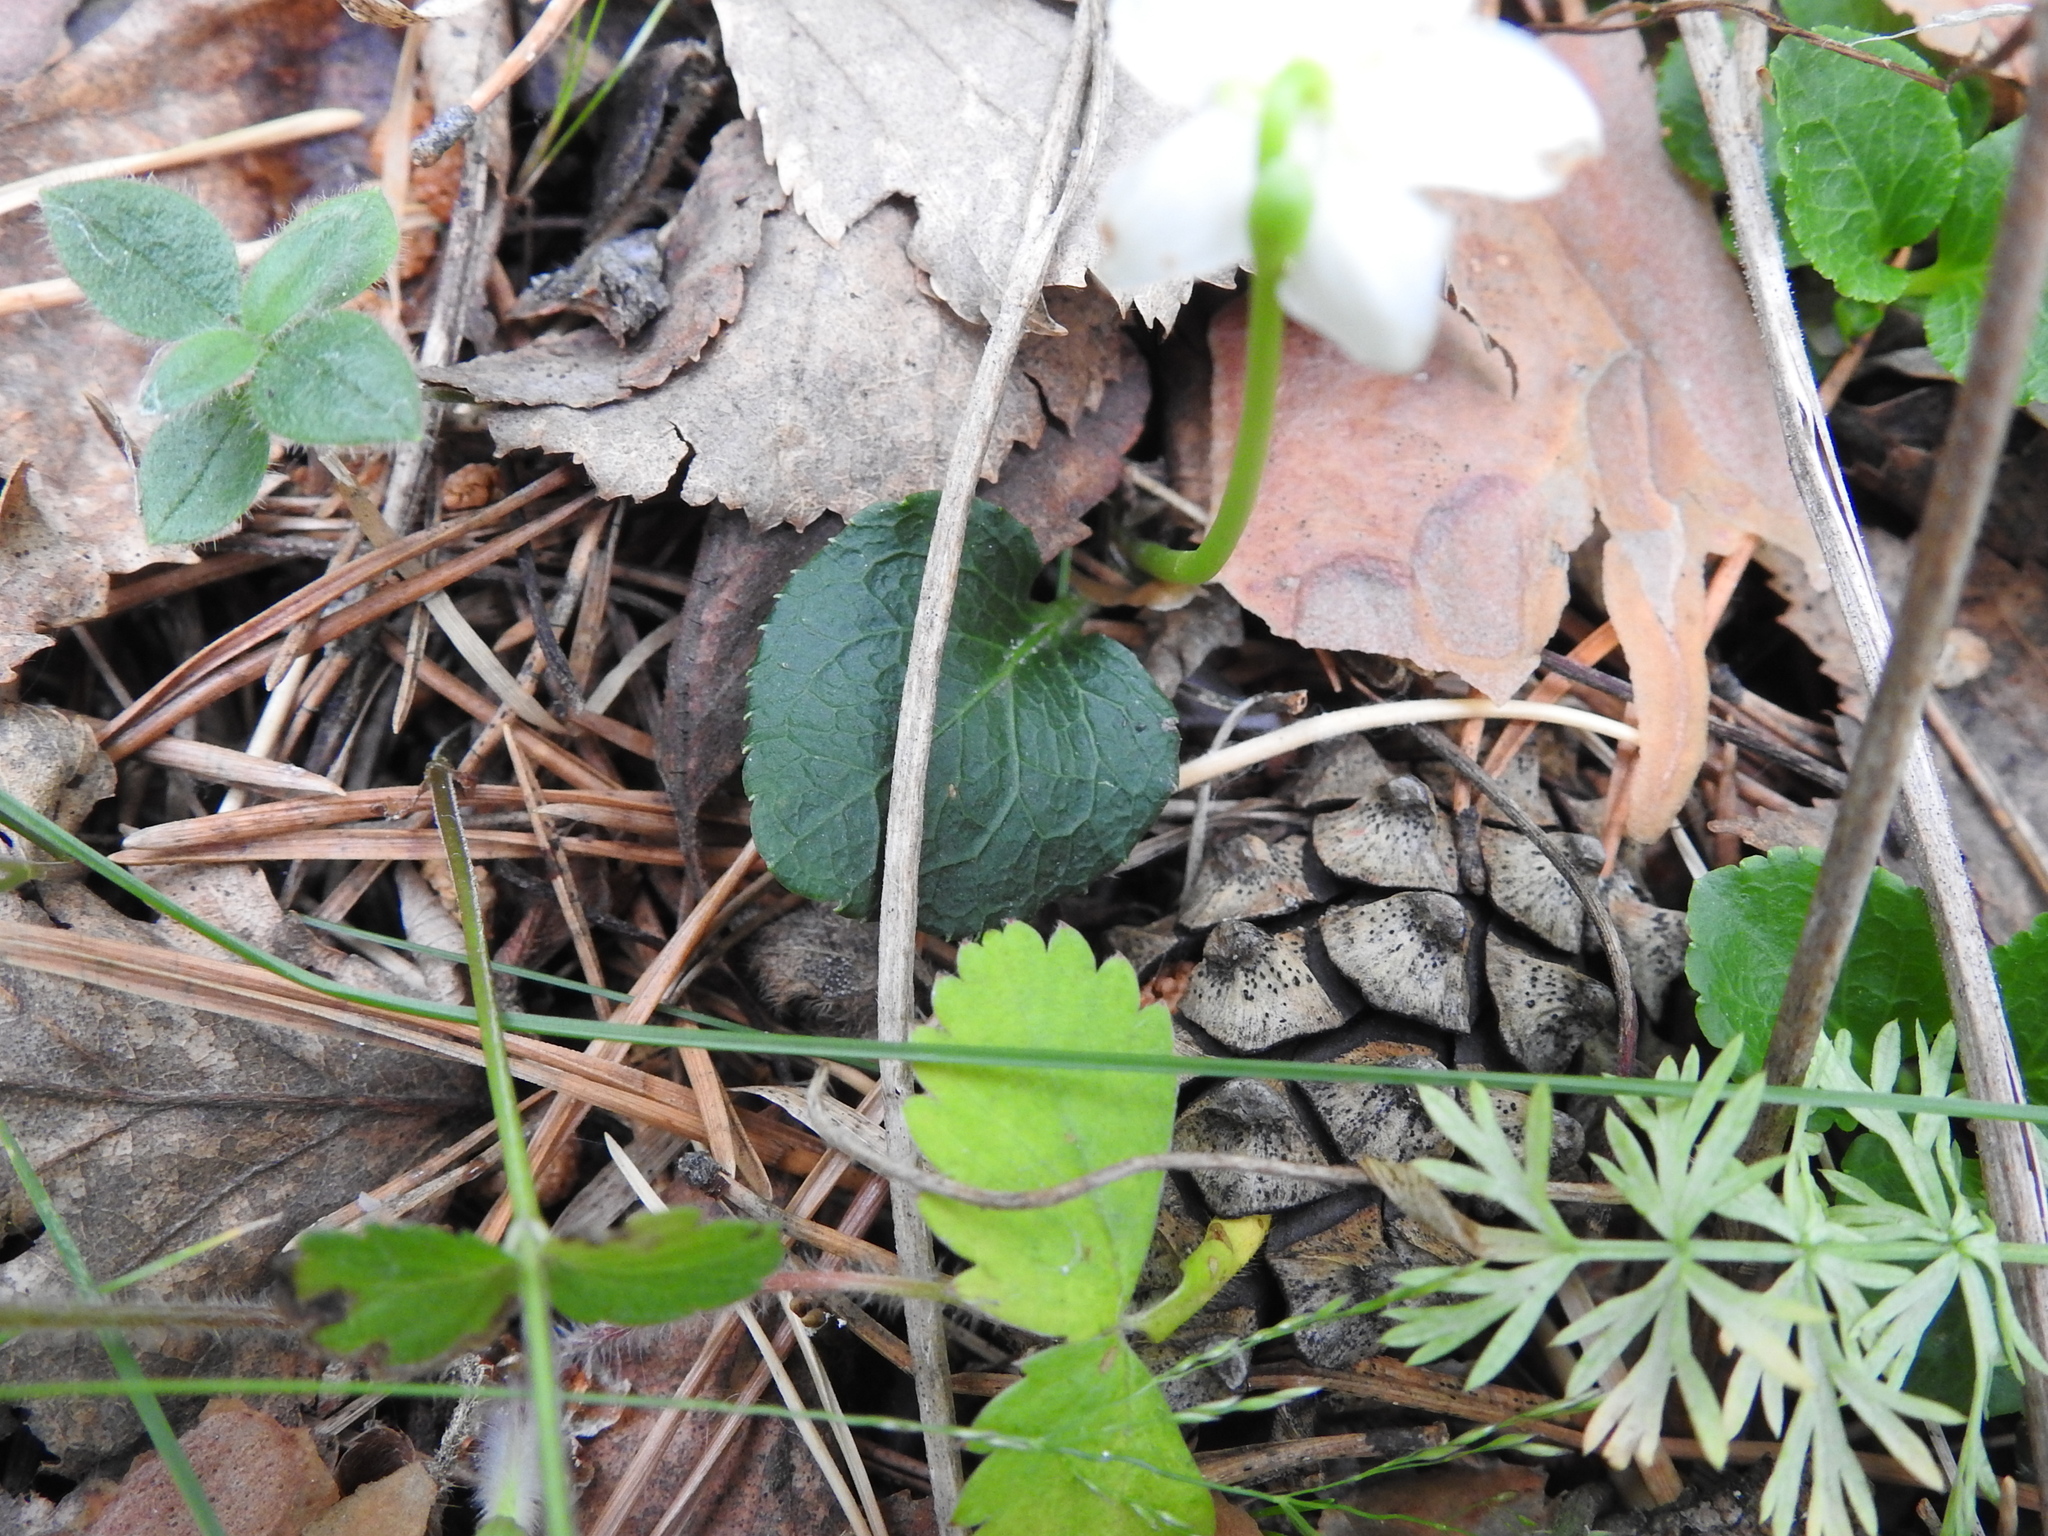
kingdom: Plantae
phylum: Tracheophyta
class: Magnoliopsida
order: Ericales
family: Ericaceae
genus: Moneses
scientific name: Moneses uniflora
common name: One-flowered wintergreen
